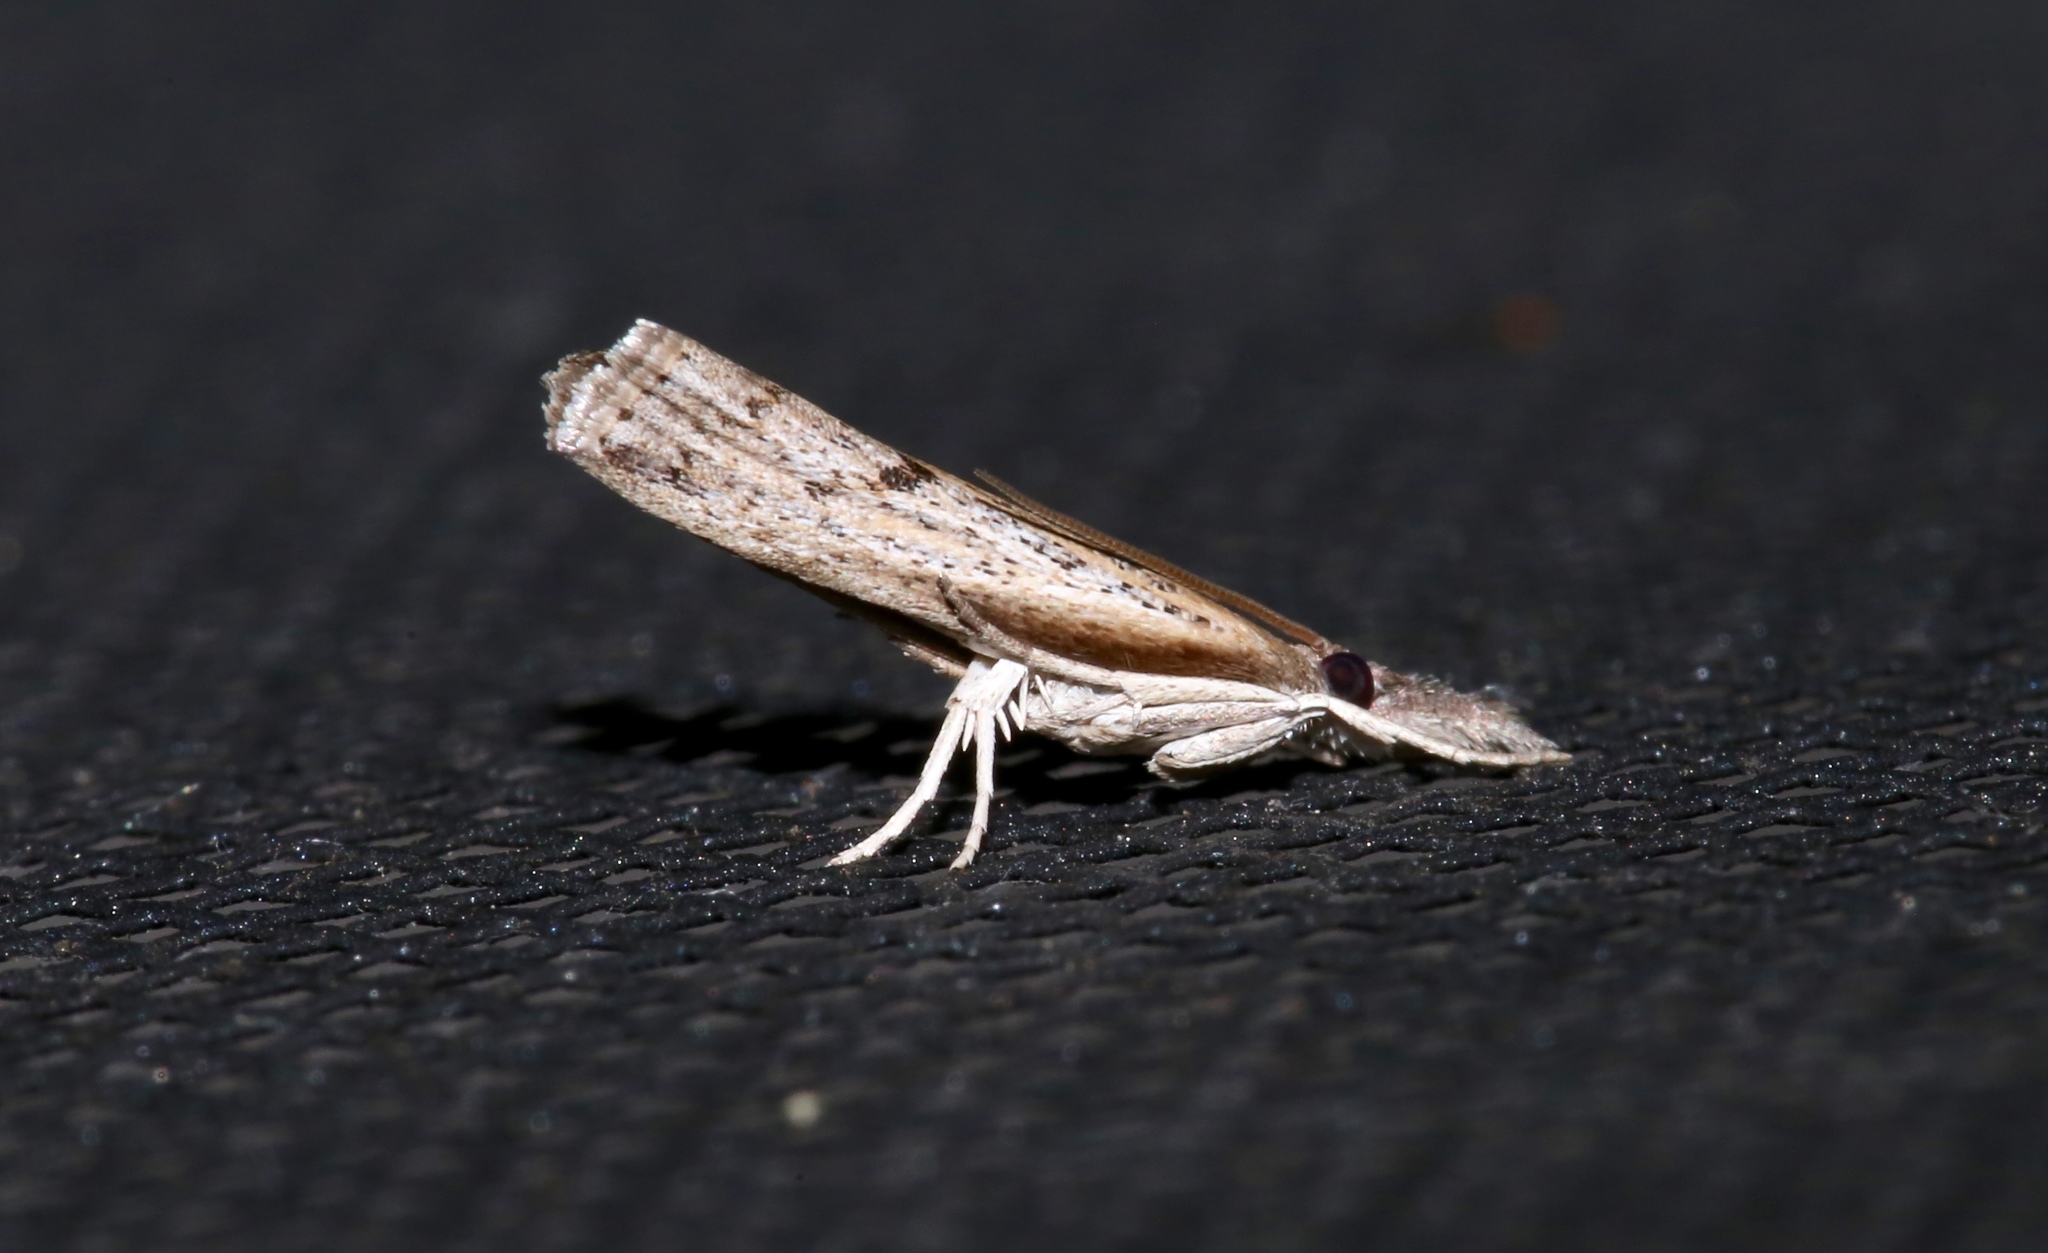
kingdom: Animalia
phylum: Arthropoda
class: Insecta
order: Lepidoptera
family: Crambidae
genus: Fissicrambus
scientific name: Fissicrambus mutabilis
